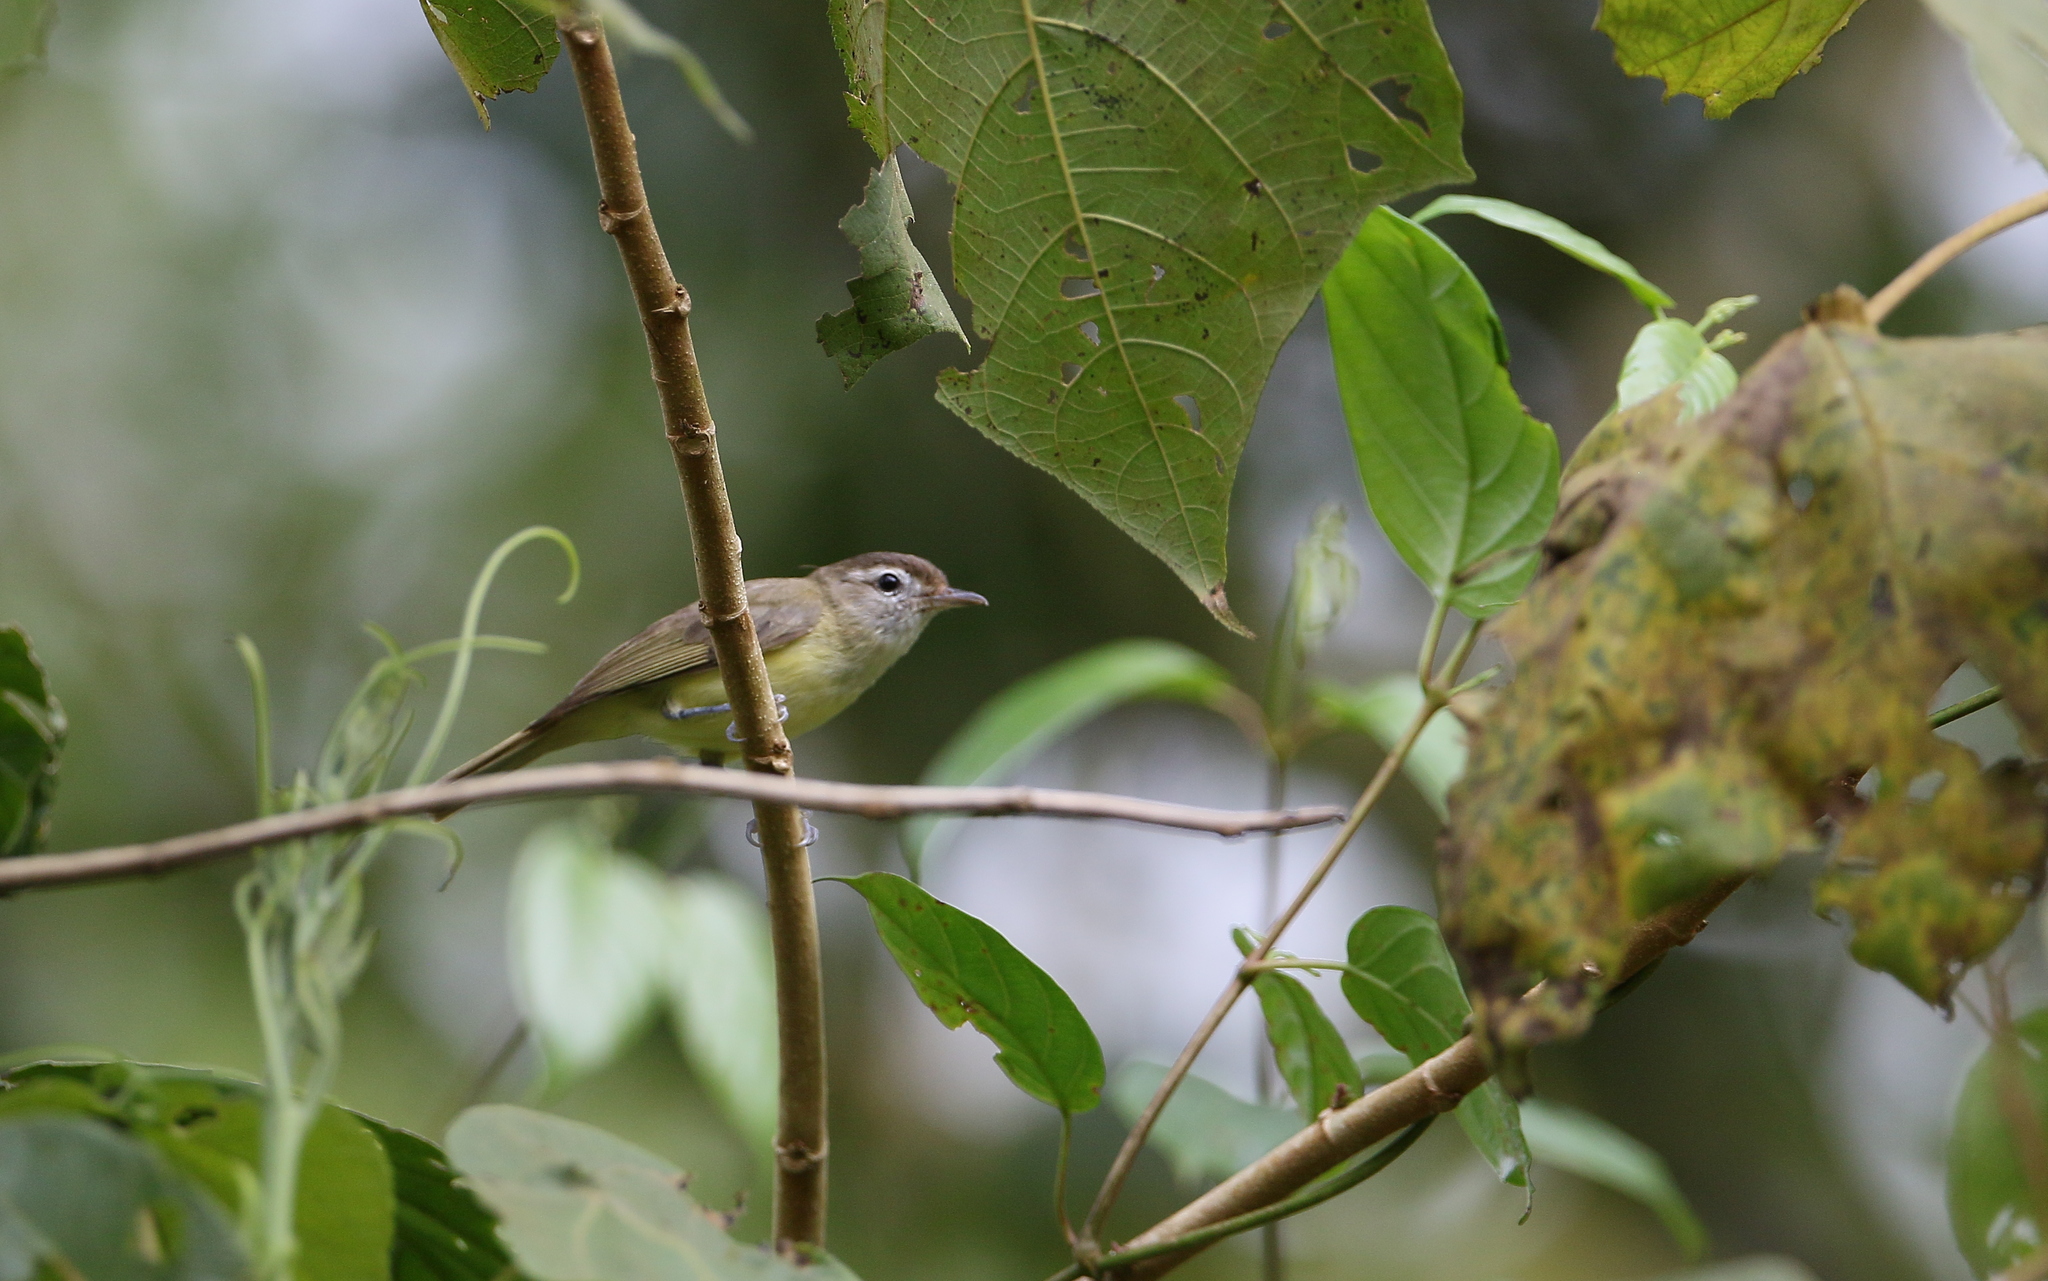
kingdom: Animalia
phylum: Chordata
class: Aves
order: Passeriformes
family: Vireonidae
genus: Vireo
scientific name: Vireo leucophrys
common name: Brown-capped vireo
